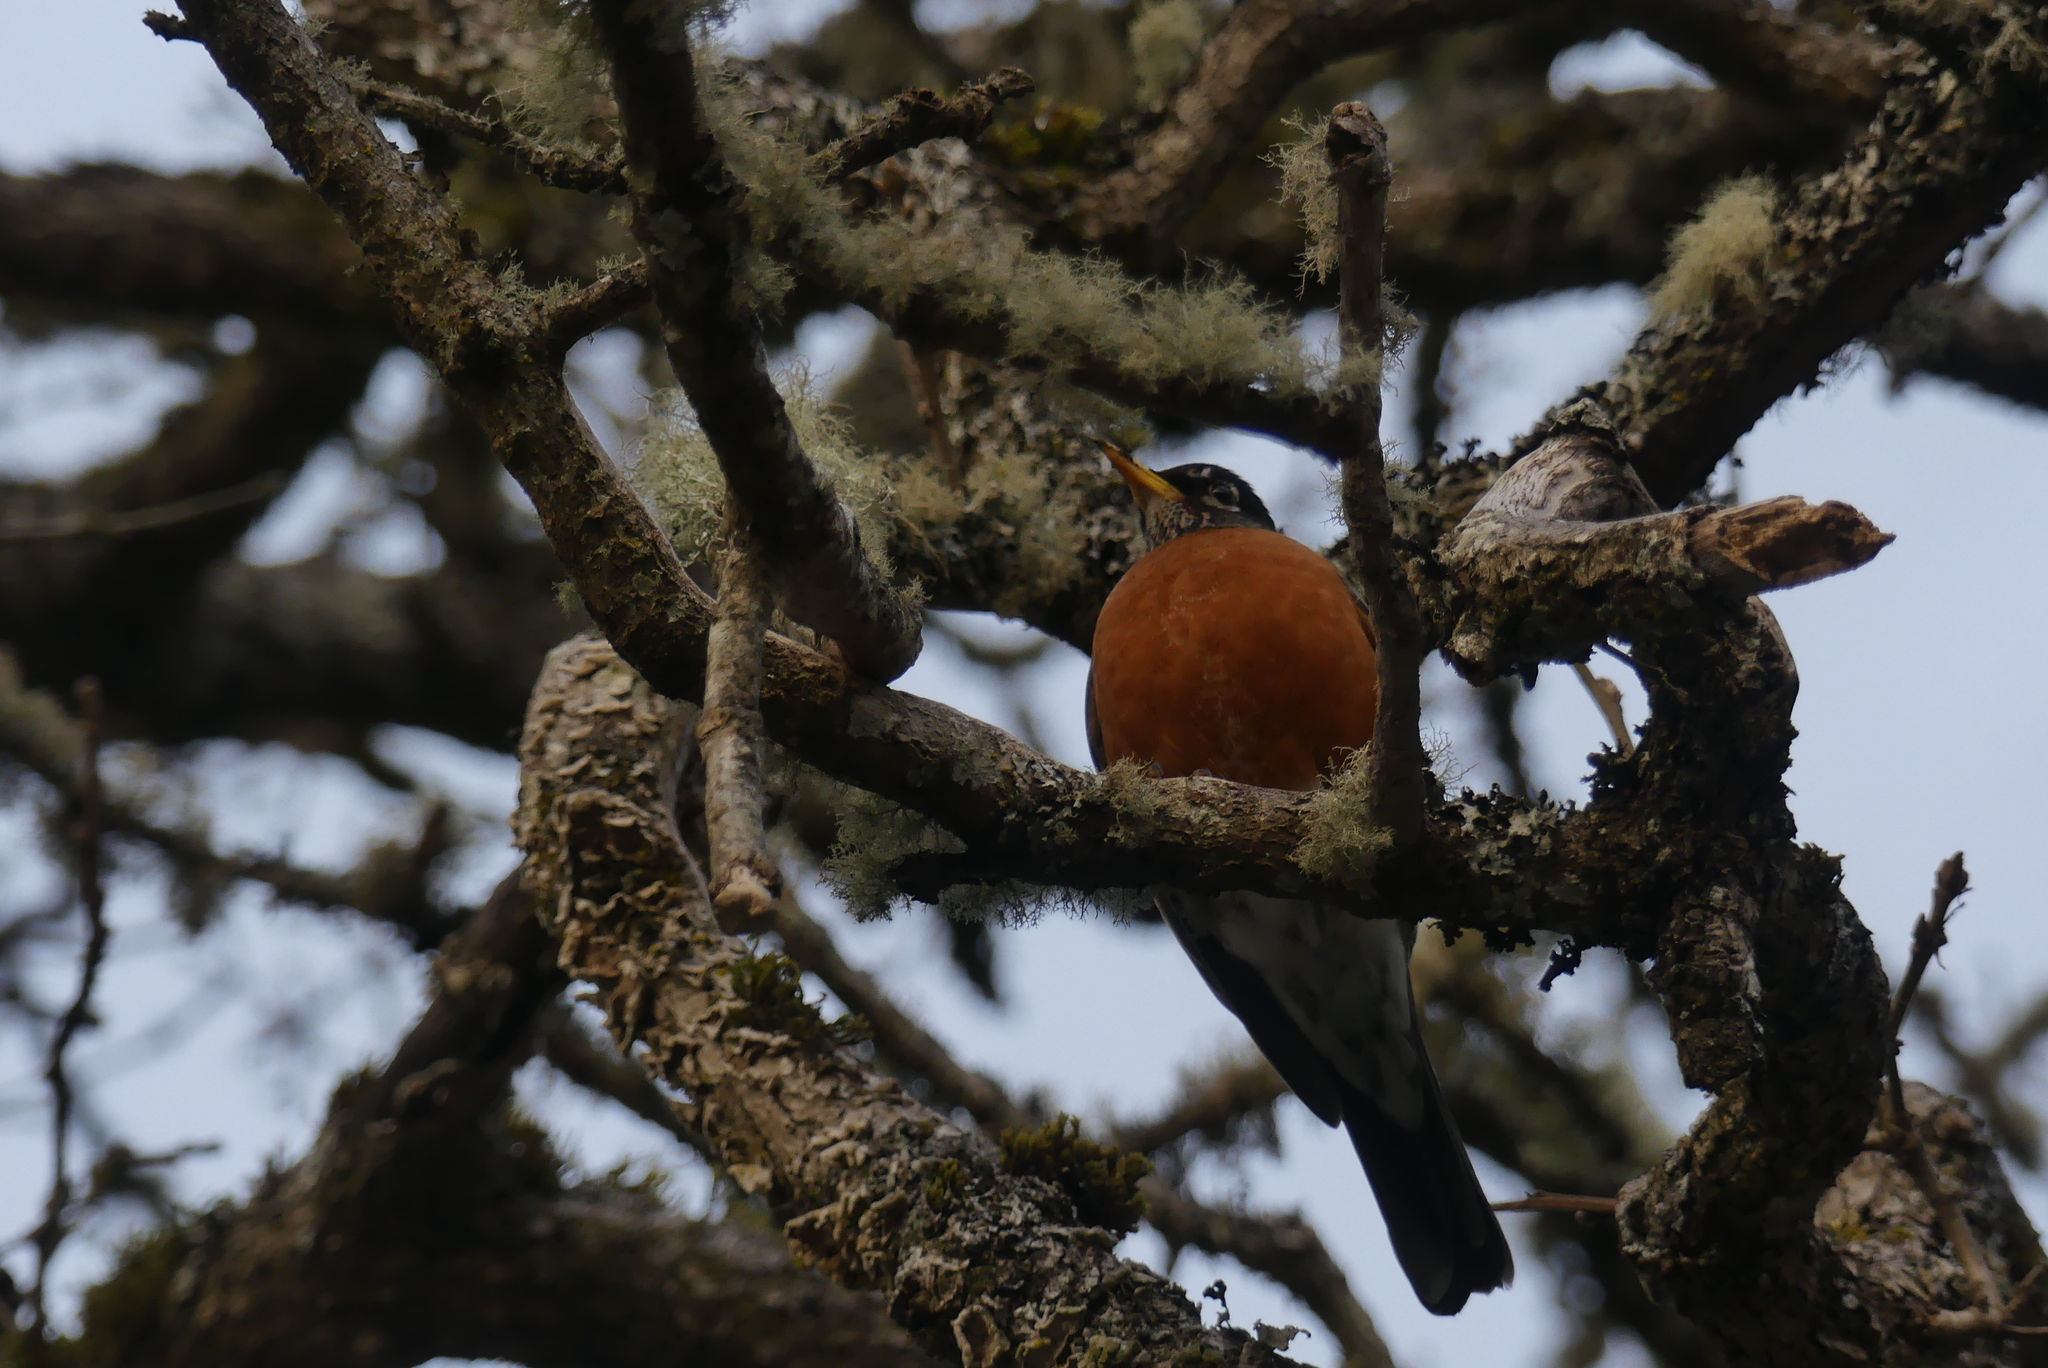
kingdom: Animalia
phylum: Chordata
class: Aves
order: Passeriformes
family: Turdidae
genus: Turdus
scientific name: Turdus migratorius
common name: American robin
